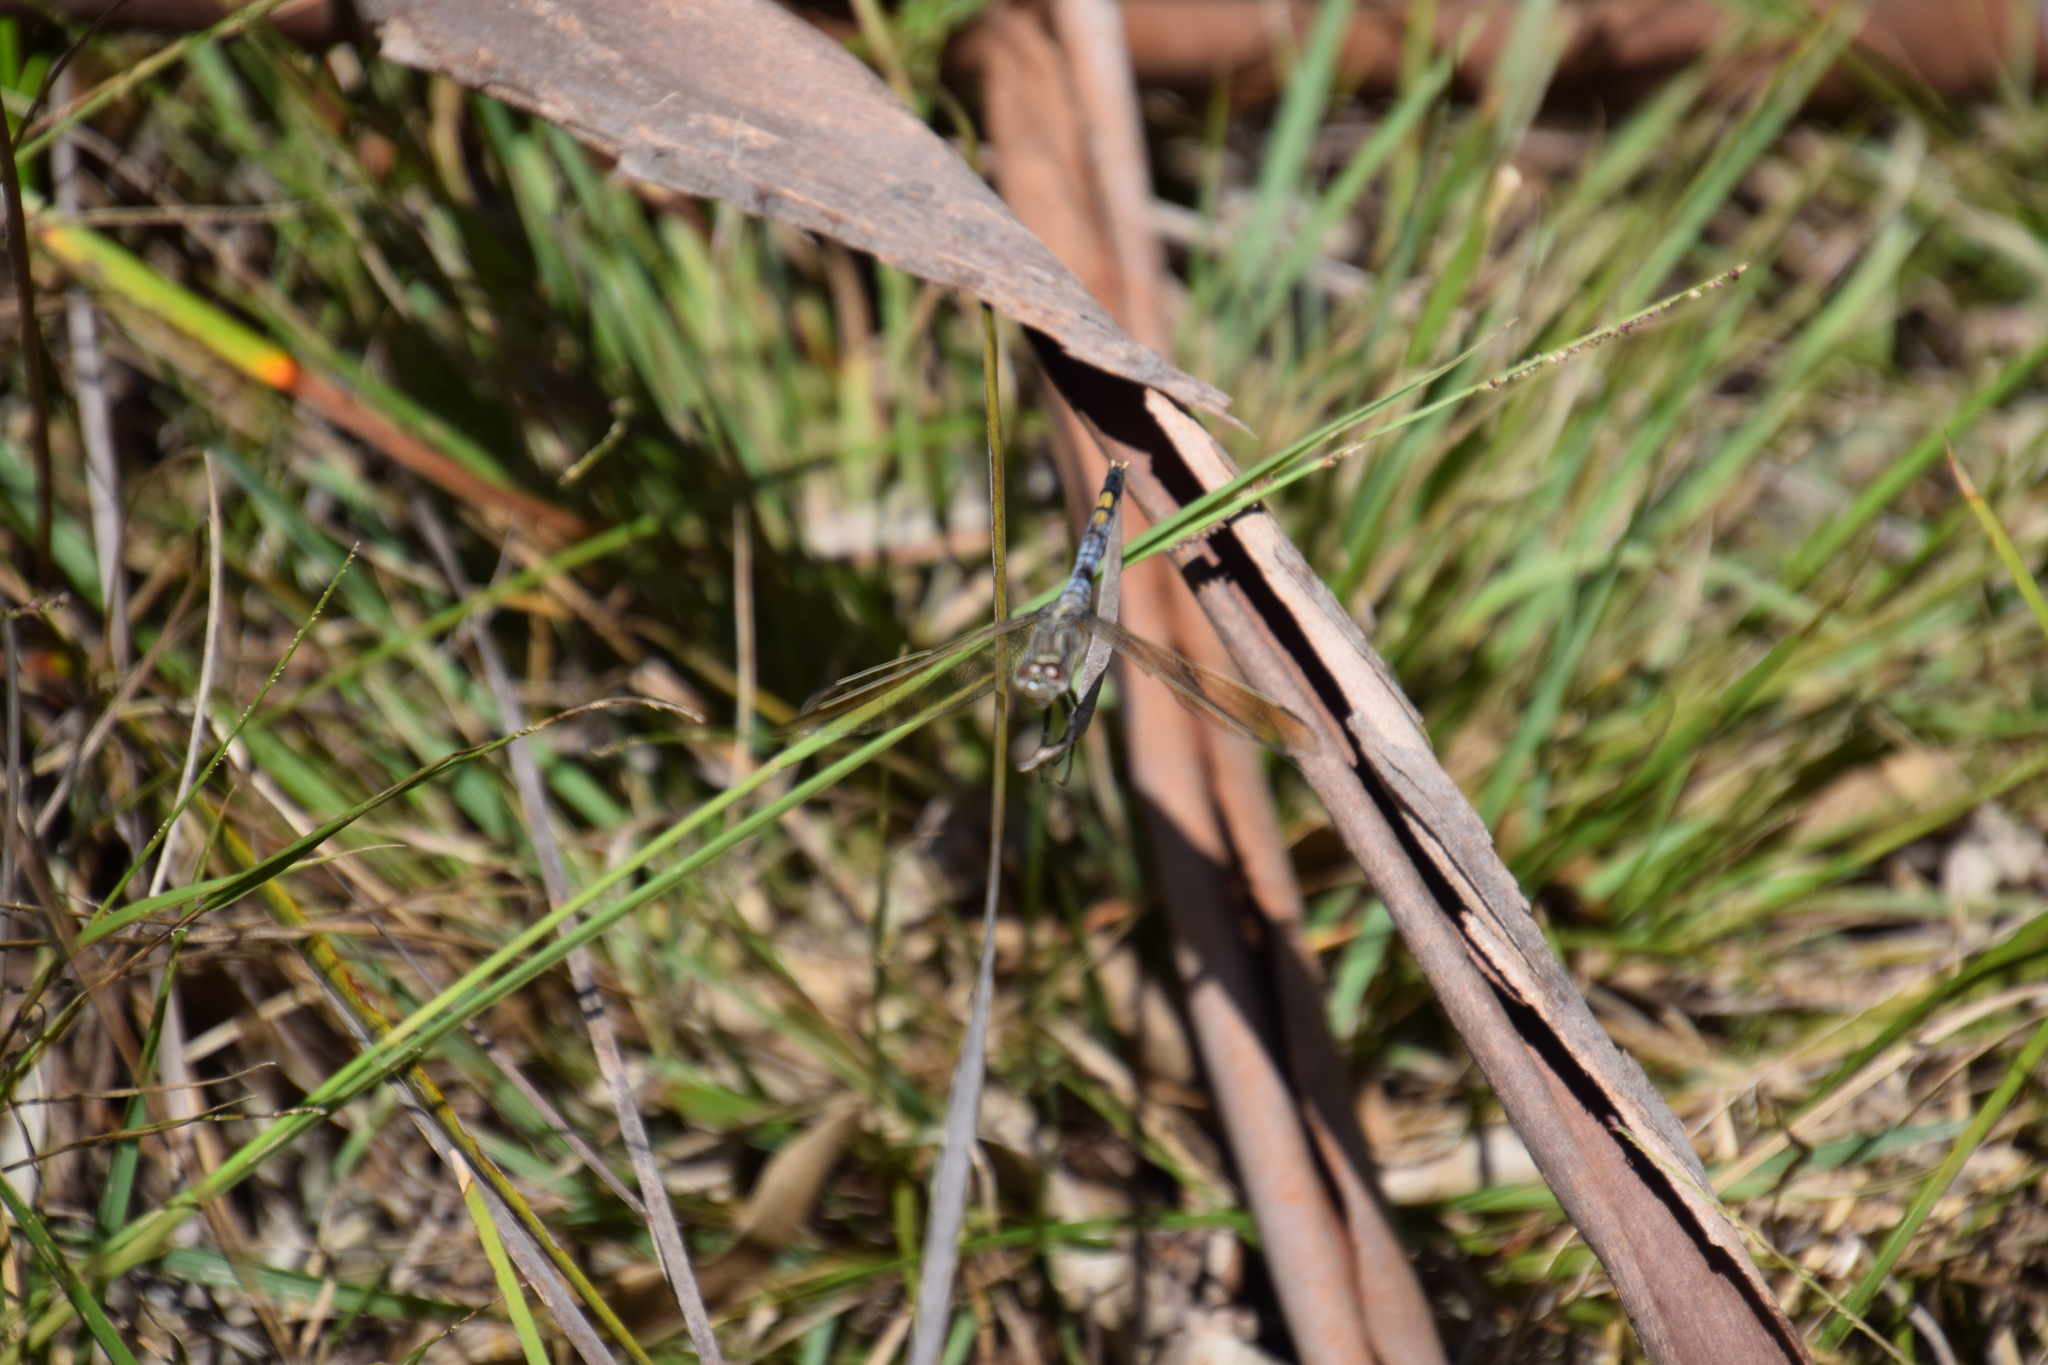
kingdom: Animalia
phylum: Arthropoda
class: Insecta
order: Odonata
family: Libellulidae
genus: Orthetrum
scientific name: Orthetrum caledonicum
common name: Blue skimmer
